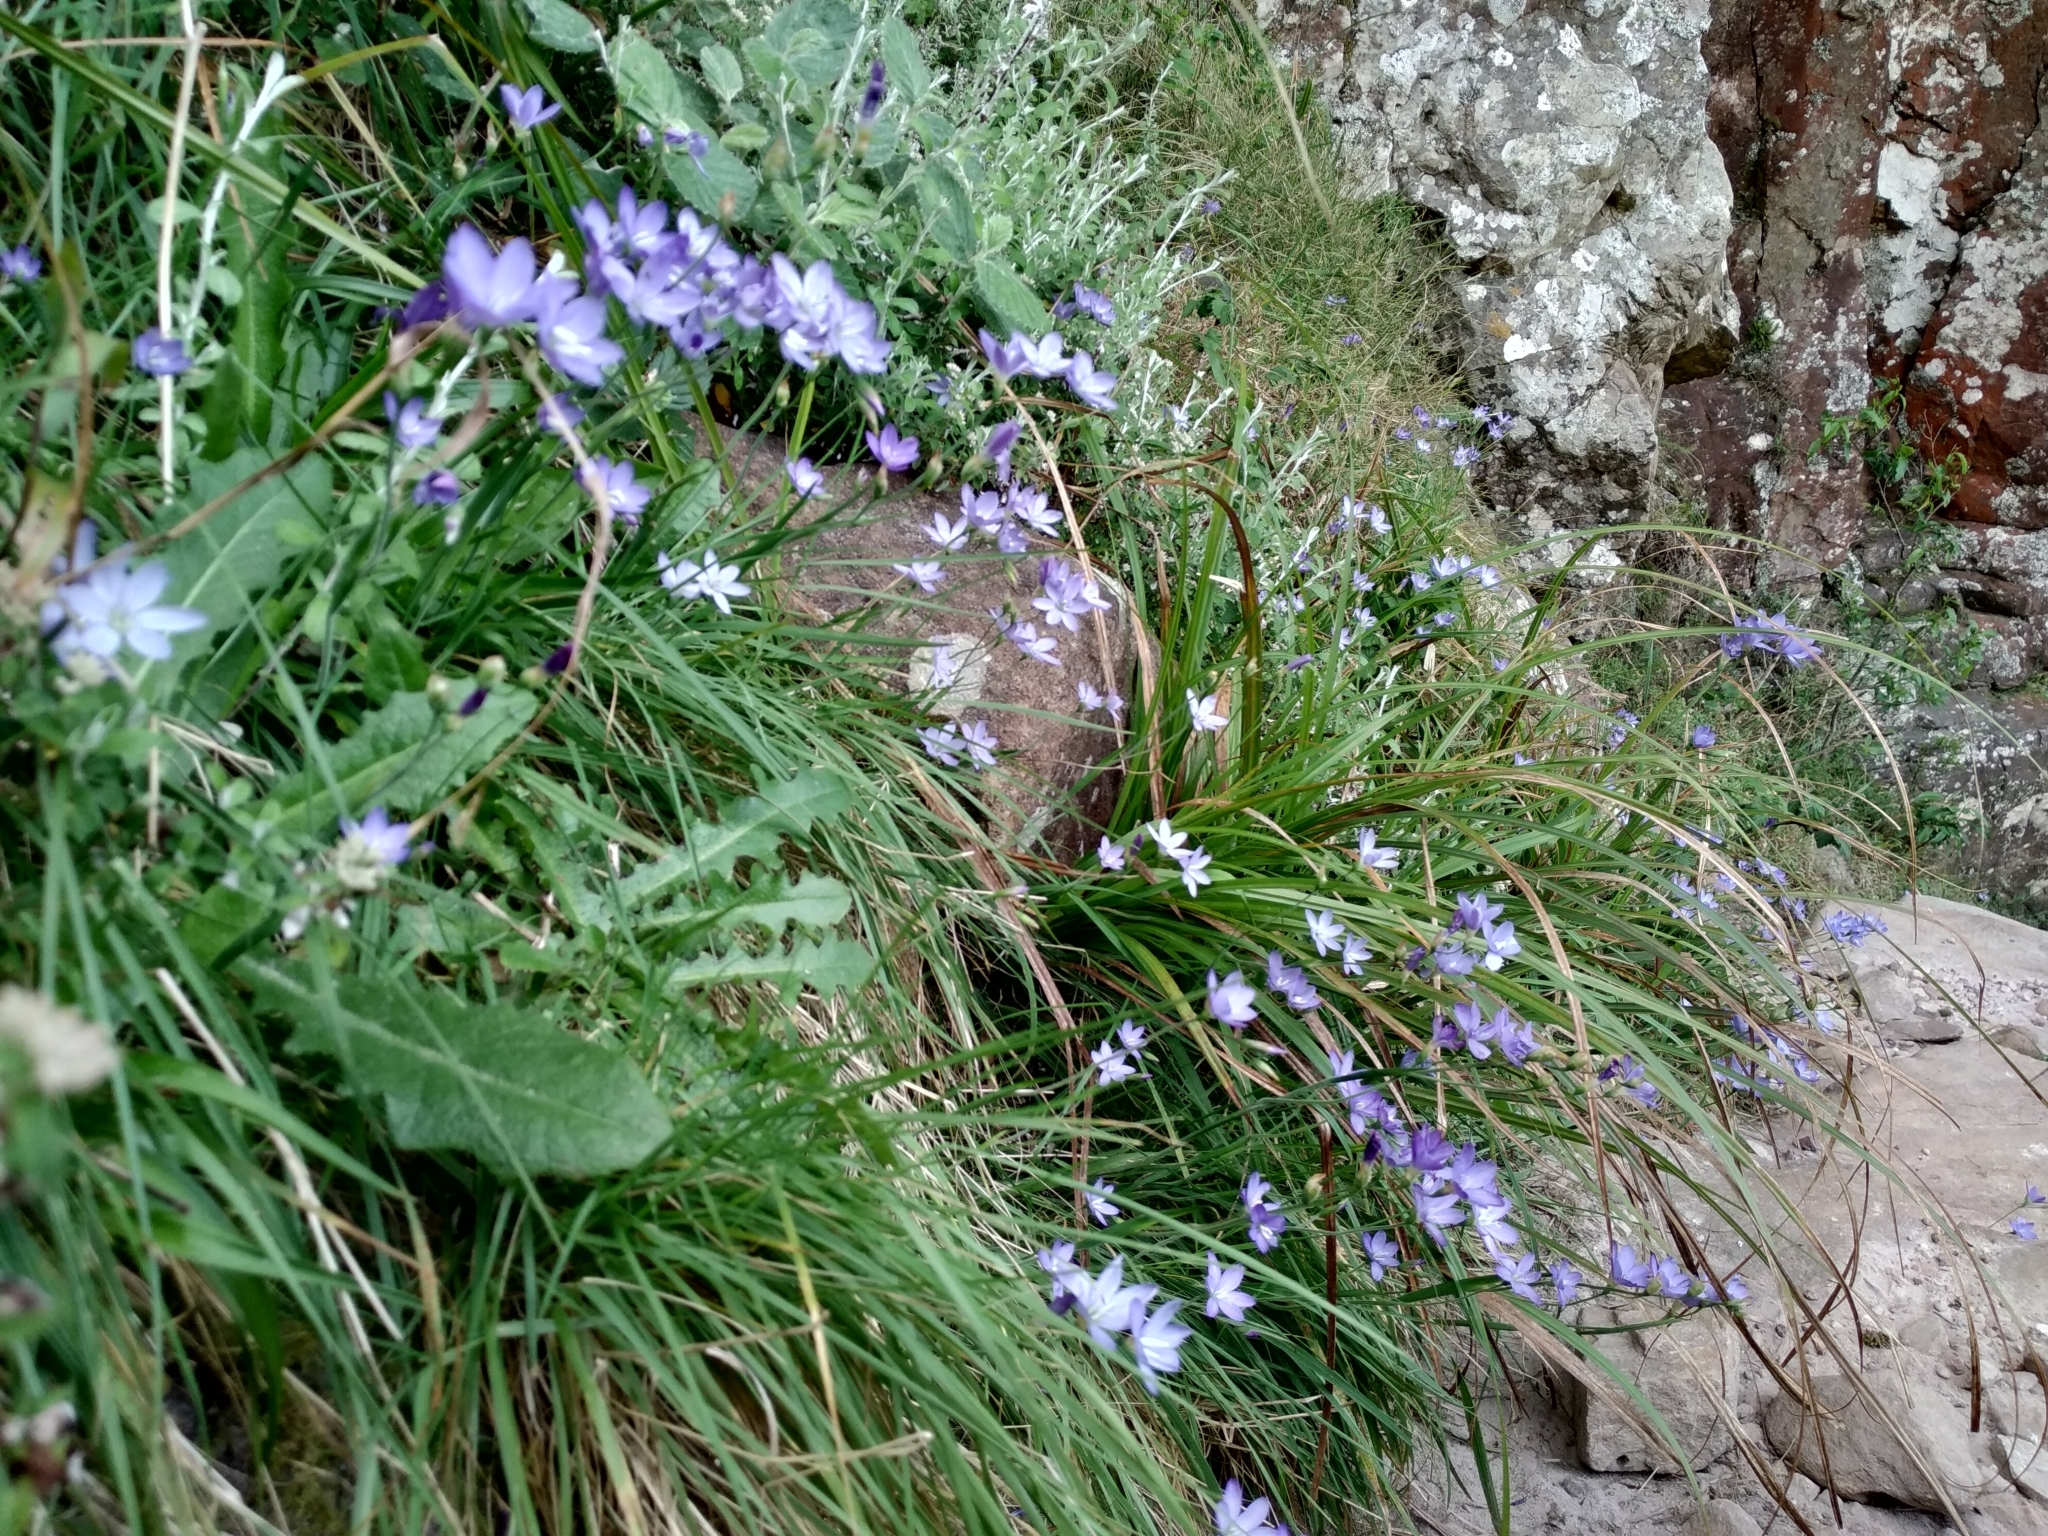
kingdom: Plantae
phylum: Tracheophyta
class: Liliopsida
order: Asparagales
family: Iridaceae
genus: Geissorhiza
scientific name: Geissorhiza aspera
